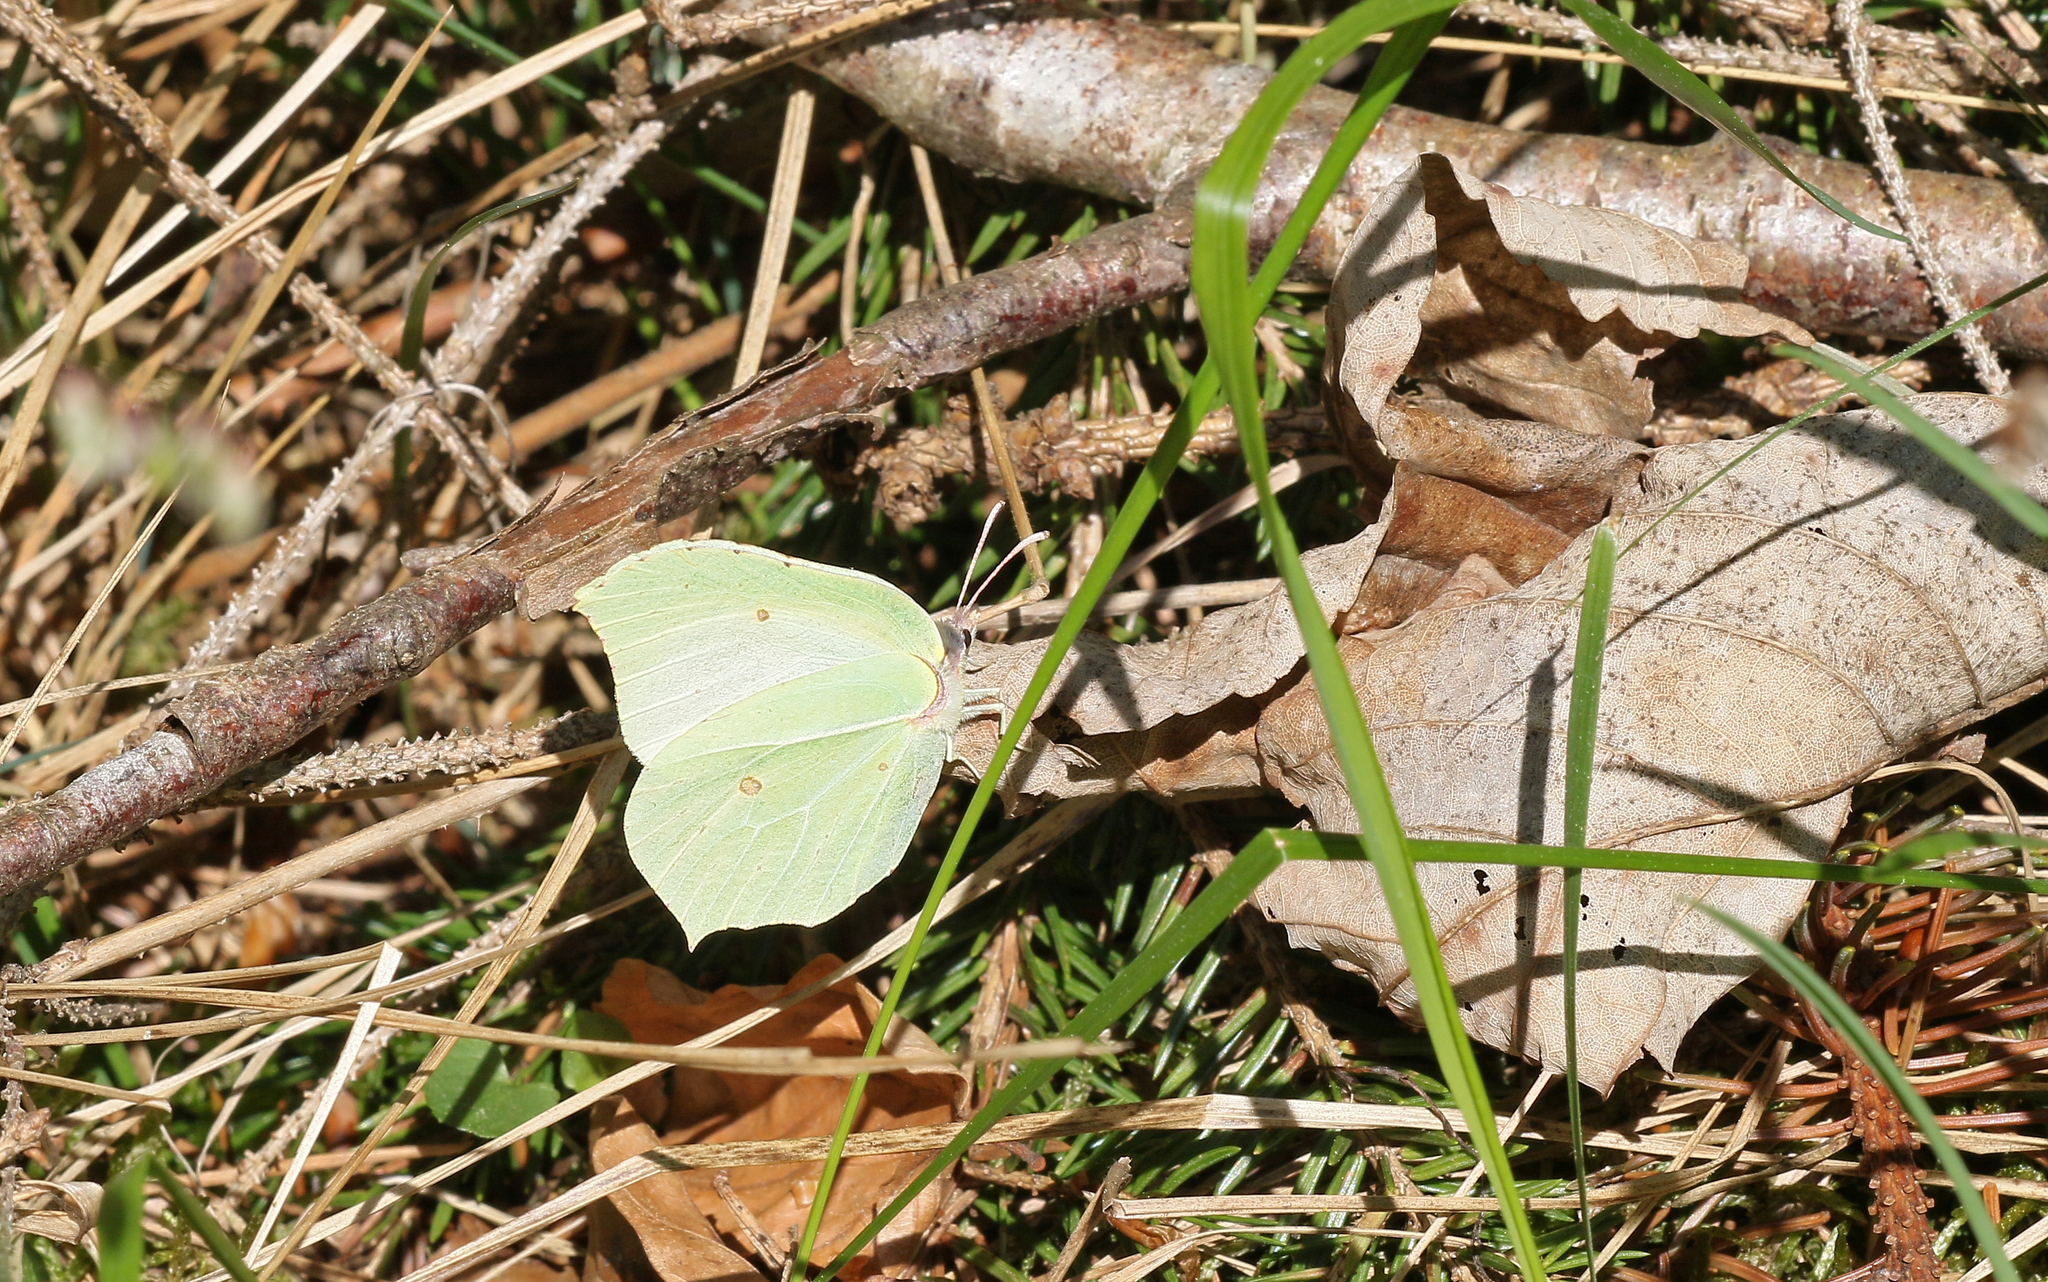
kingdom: Animalia
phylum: Arthropoda
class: Insecta
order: Lepidoptera
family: Pieridae
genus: Gonepteryx
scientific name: Gonepteryx rhamni
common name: Brimstone
